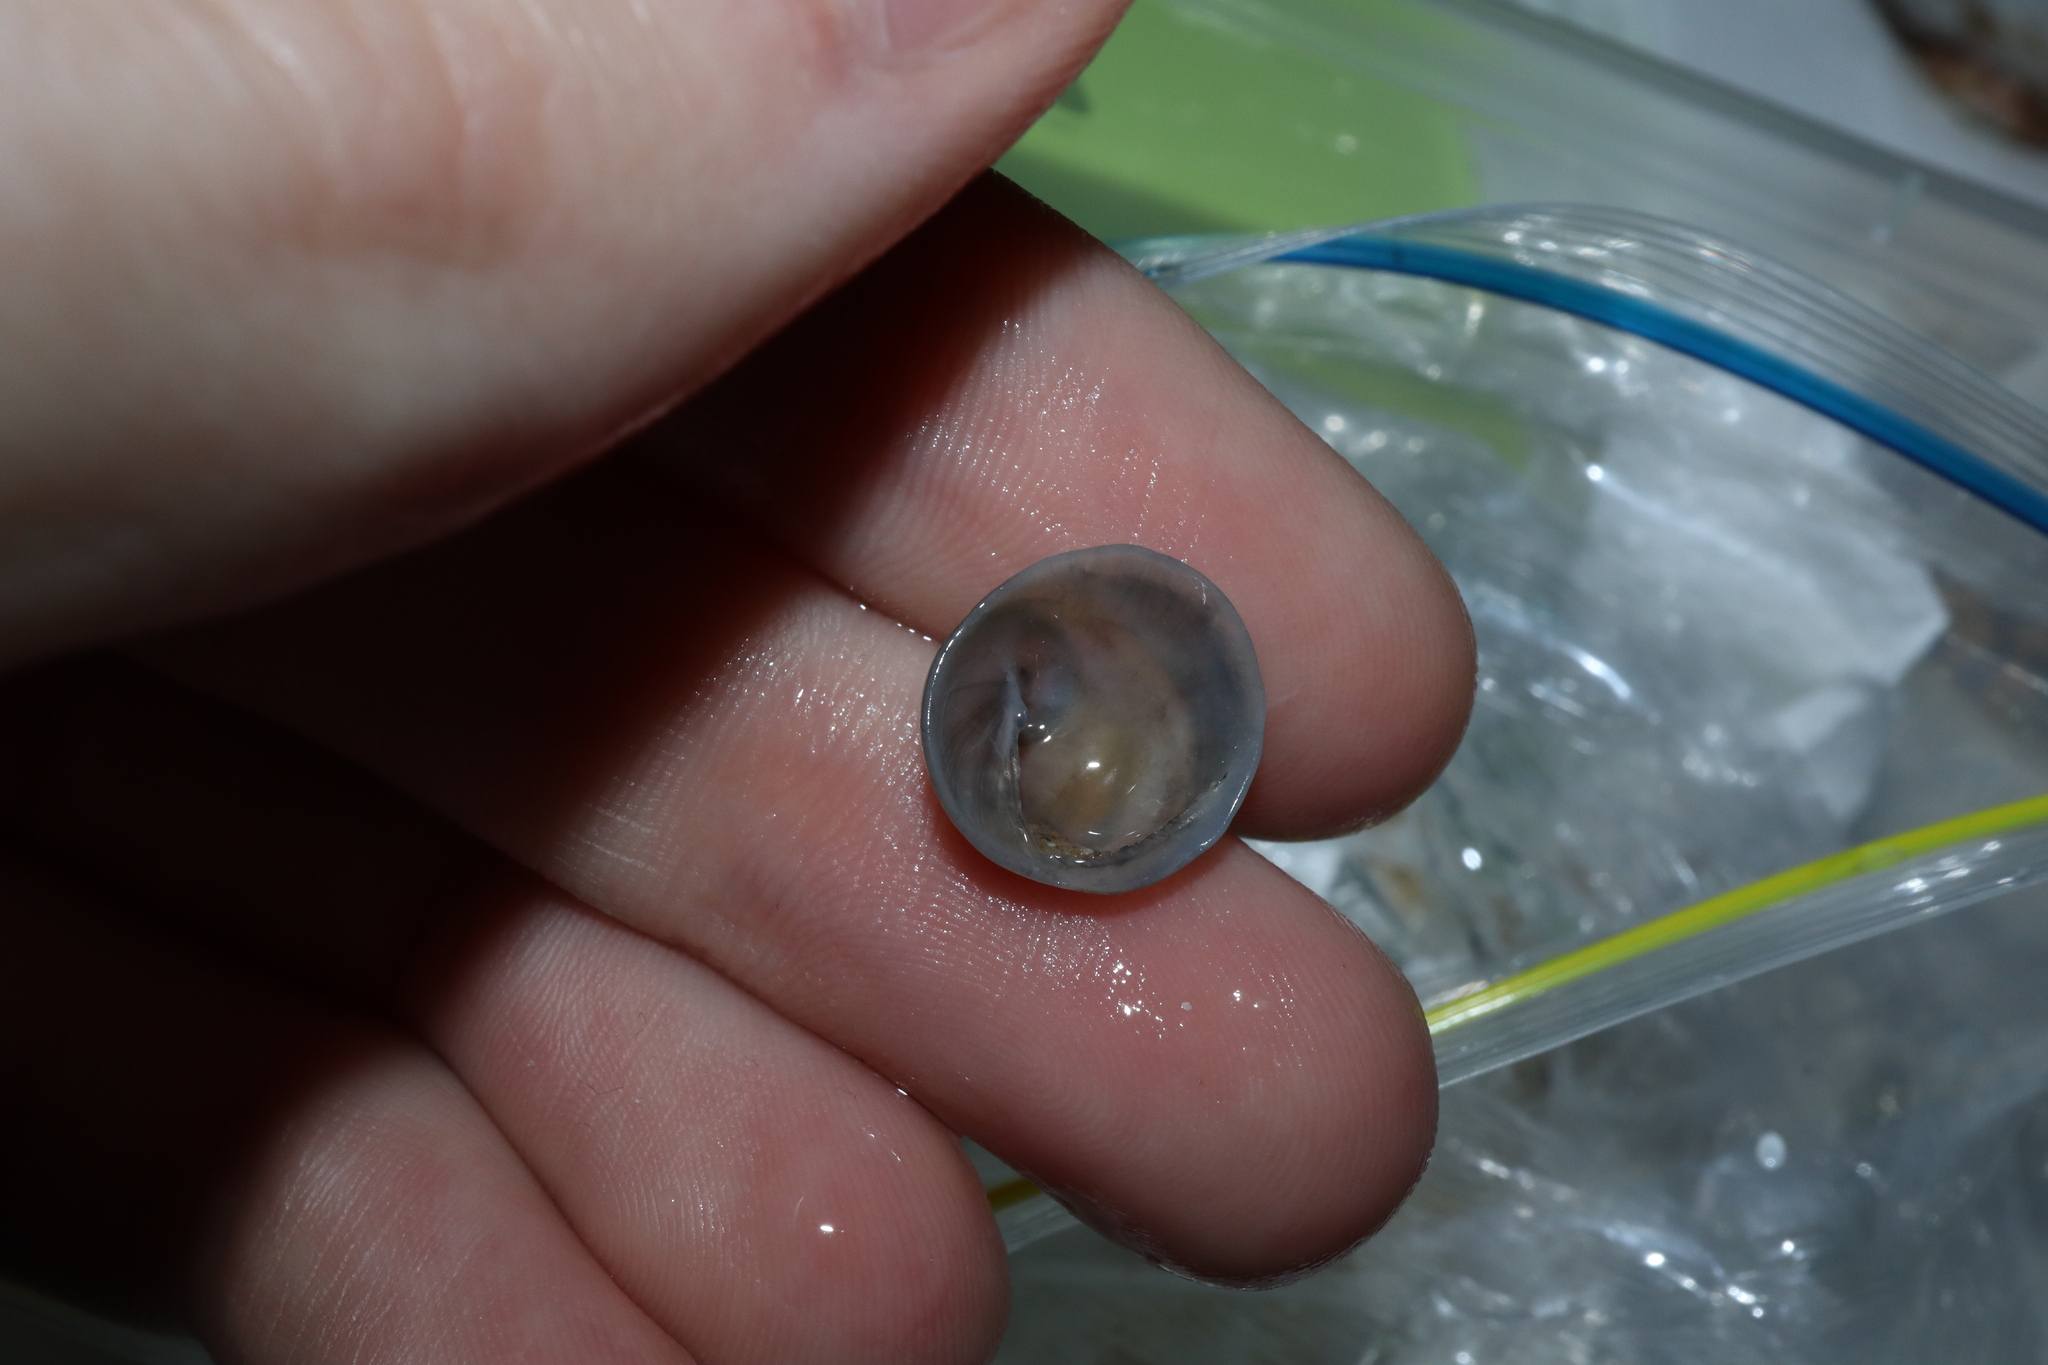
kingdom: Animalia
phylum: Mollusca
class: Gastropoda
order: Littorinimorpha
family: Calyptraeidae
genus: Sigapatella
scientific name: Sigapatella calyptraeformis
